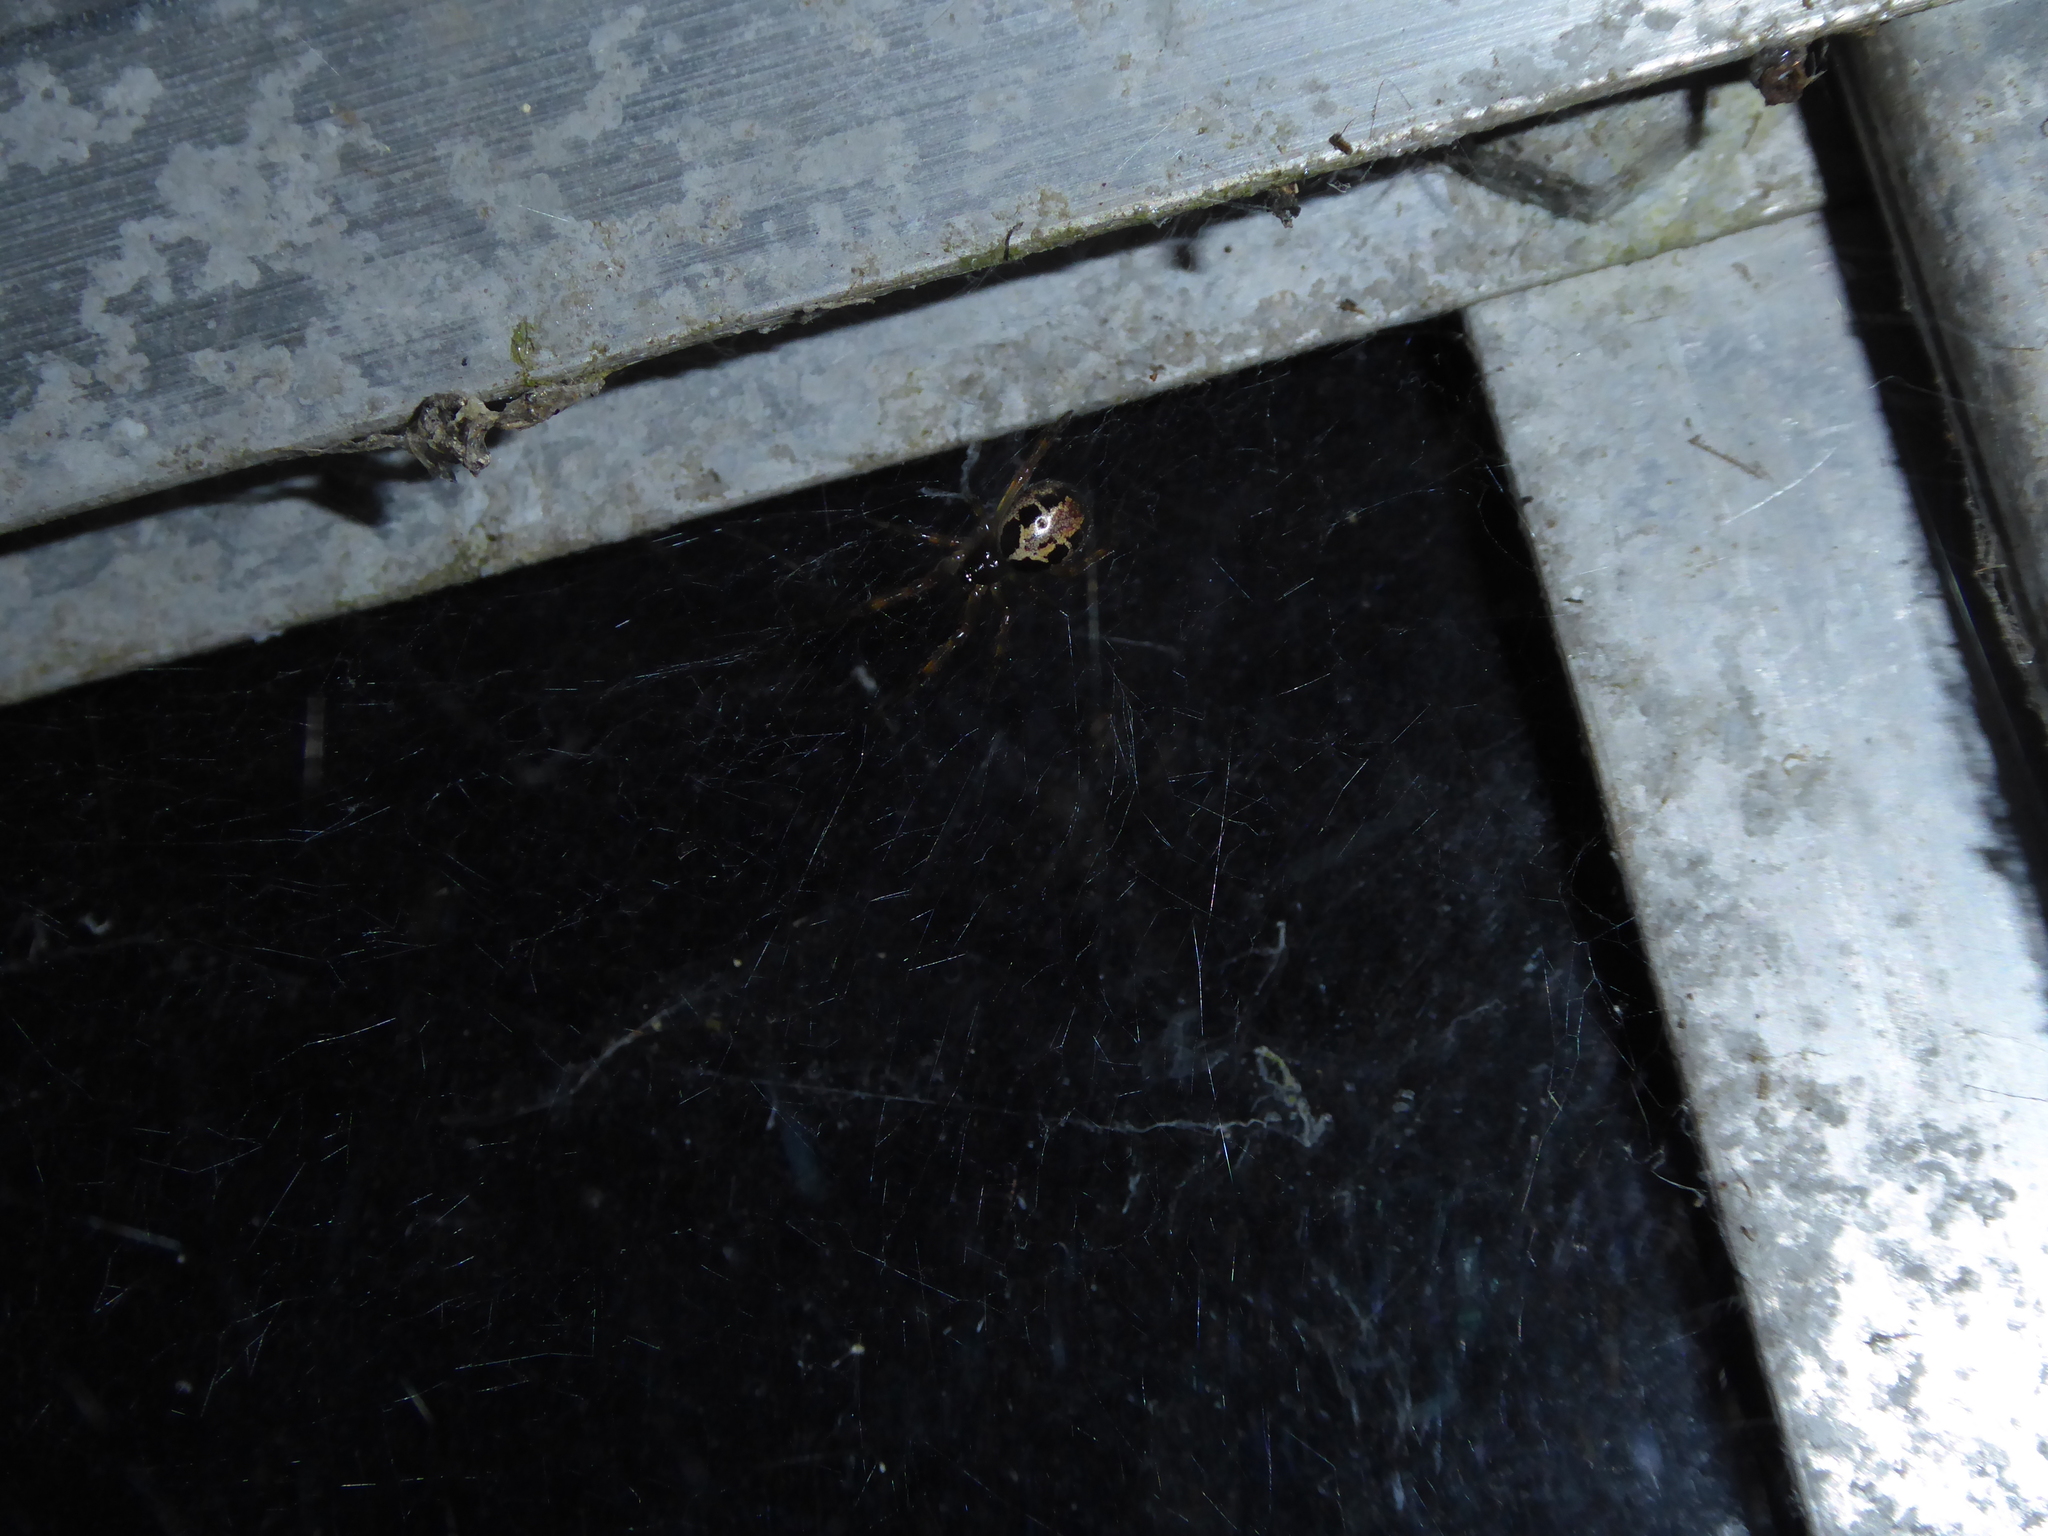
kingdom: Animalia
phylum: Arthropoda
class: Arachnida
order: Araneae
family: Theridiidae
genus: Steatoda
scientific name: Steatoda nobilis
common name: Cobweb weaver
